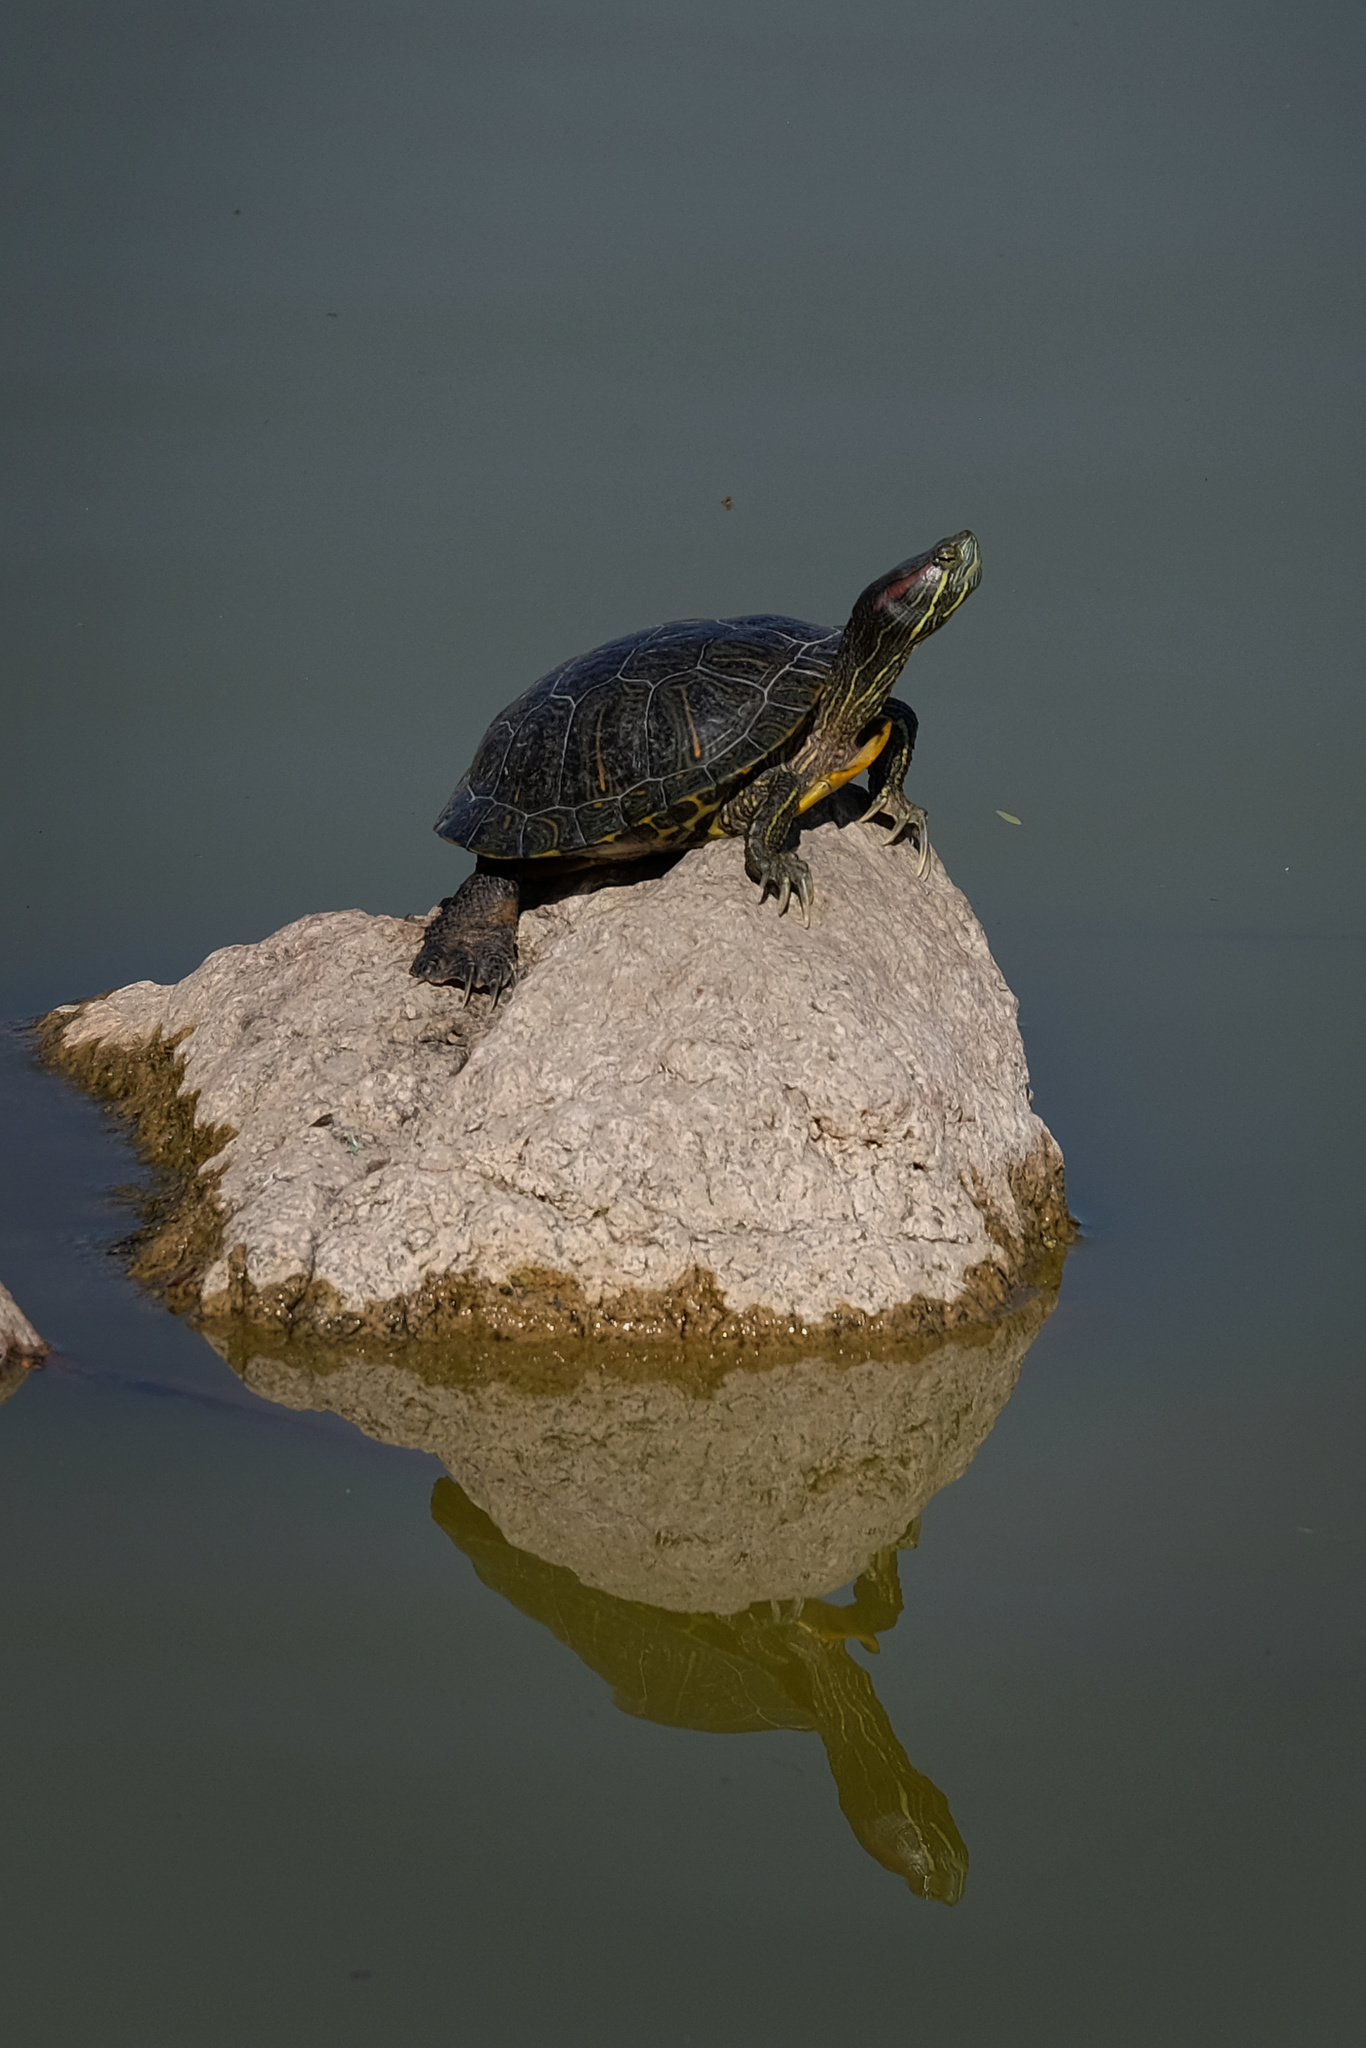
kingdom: Animalia
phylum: Chordata
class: Testudines
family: Emydidae
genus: Trachemys
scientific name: Trachemys scripta
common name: Slider
